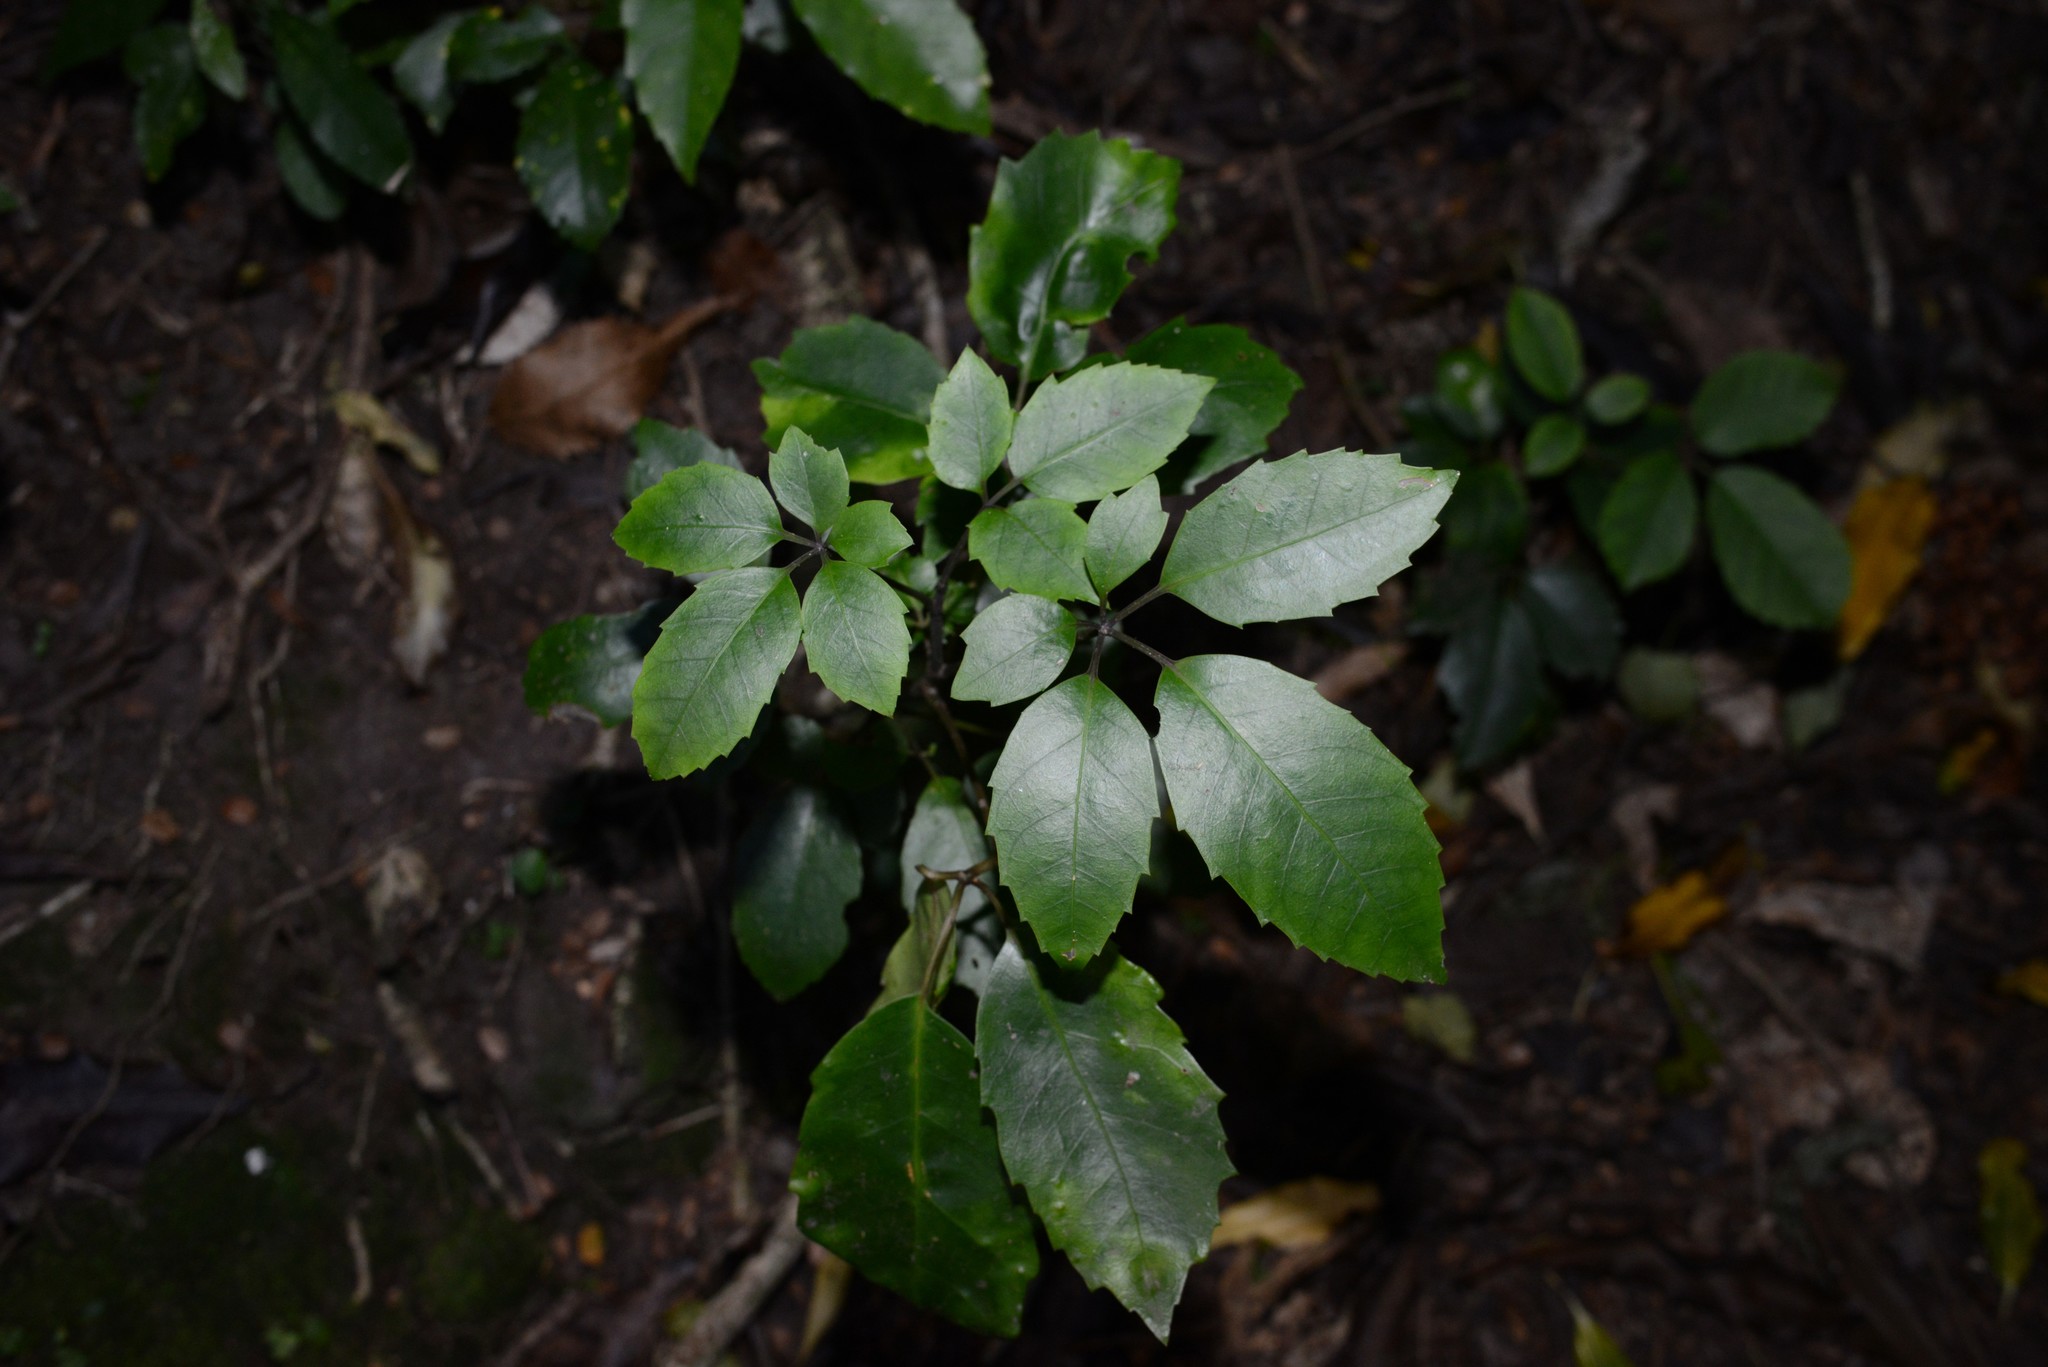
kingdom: Plantae
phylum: Tracheophyta
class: Magnoliopsida
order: Apiales
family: Araliaceae
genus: Neopanax
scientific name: Neopanax arboreus
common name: Five-fingers
